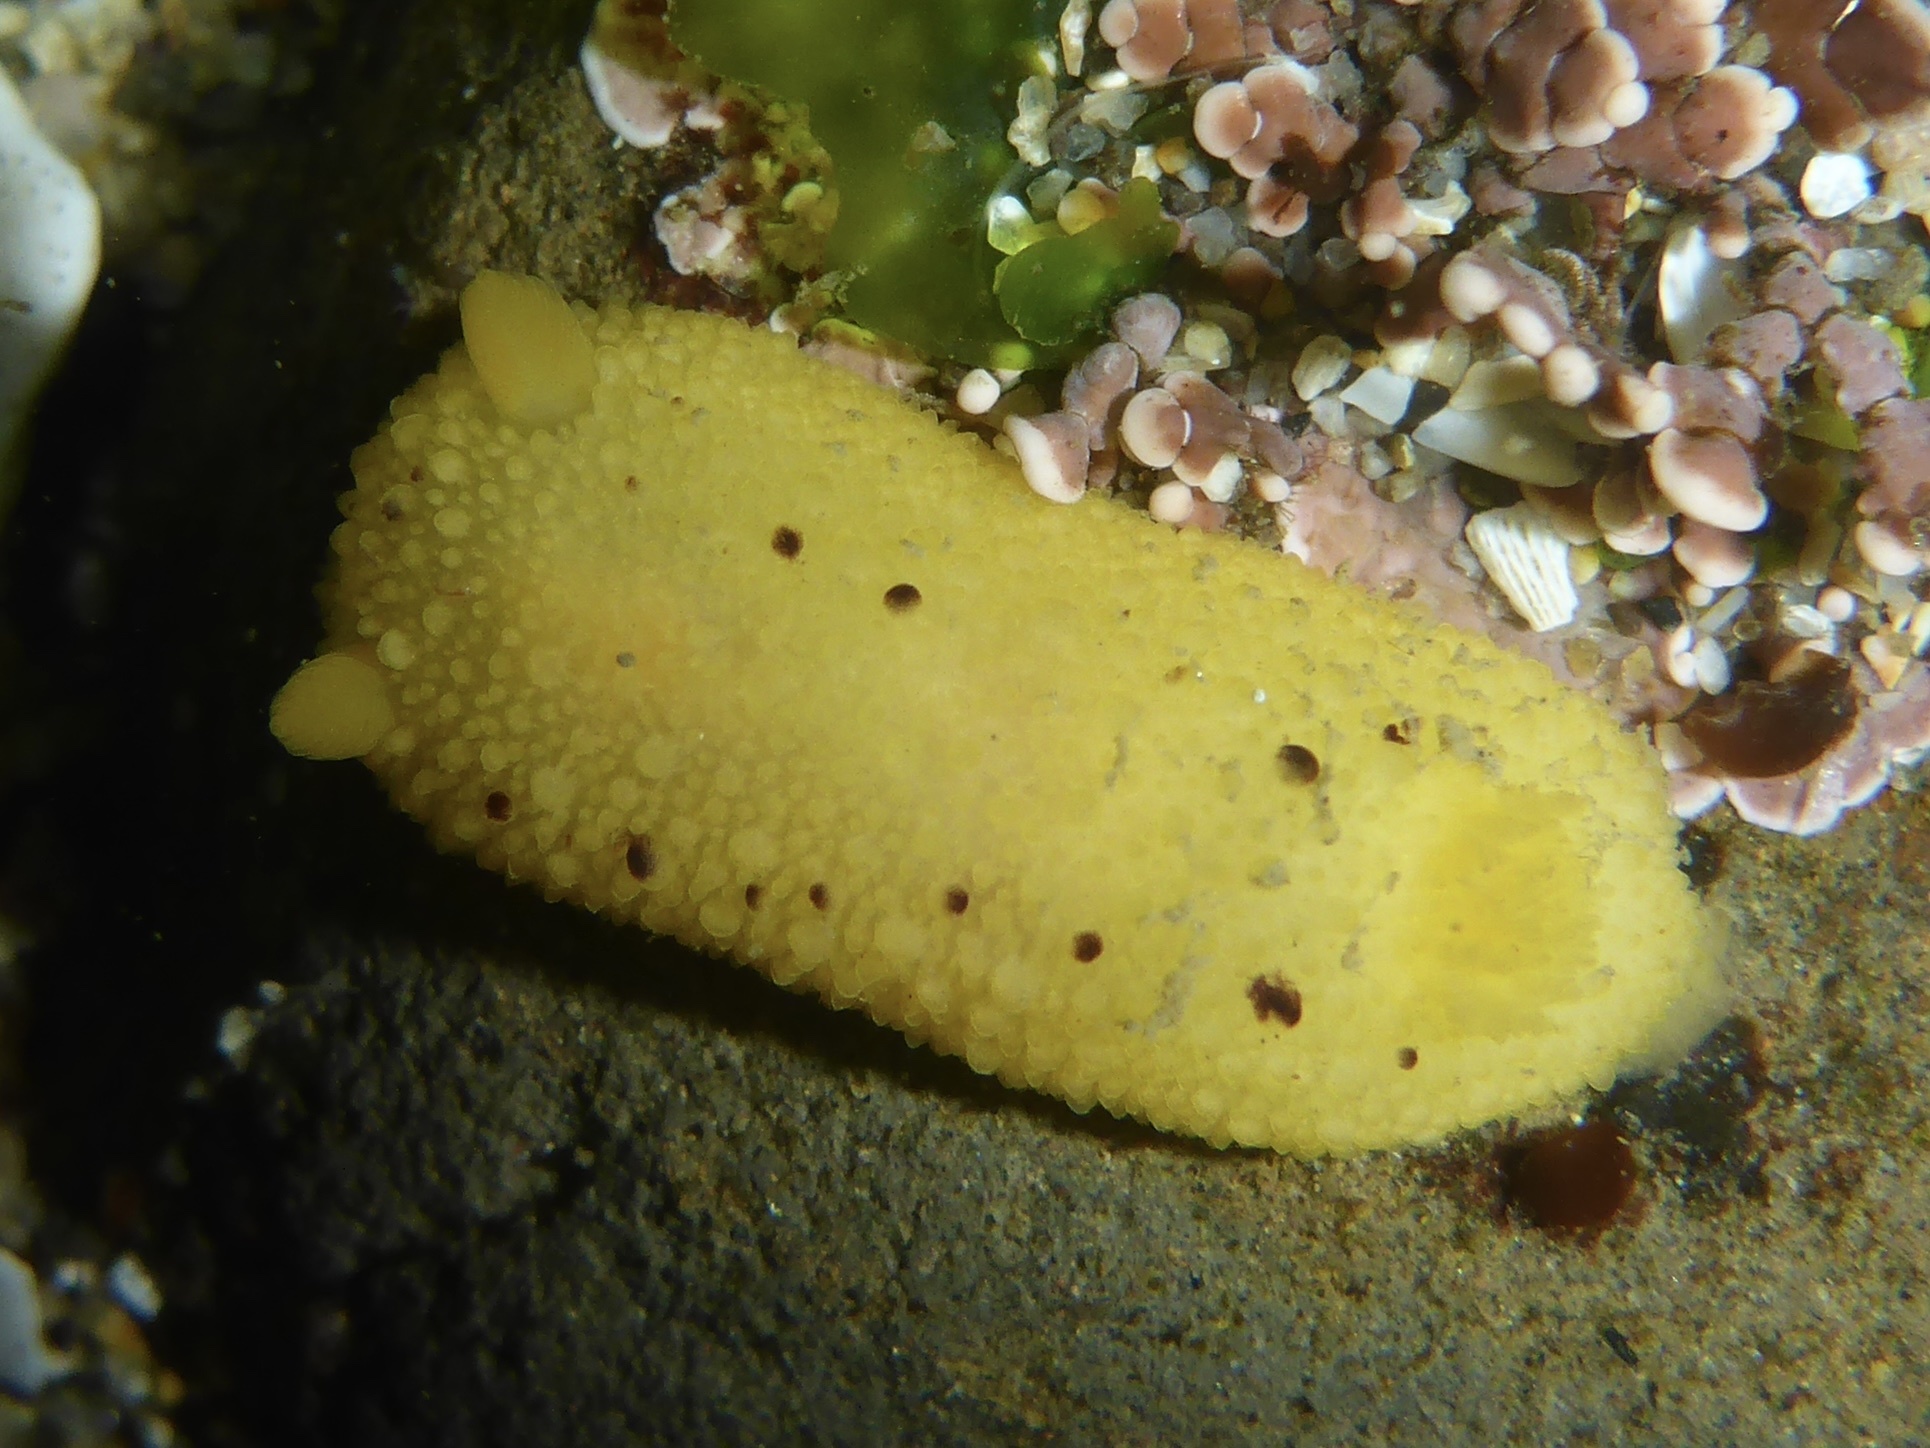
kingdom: Animalia
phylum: Mollusca
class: Gastropoda
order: Nudibranchia
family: Dorididae
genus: Doris
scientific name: Doris montereyensis
